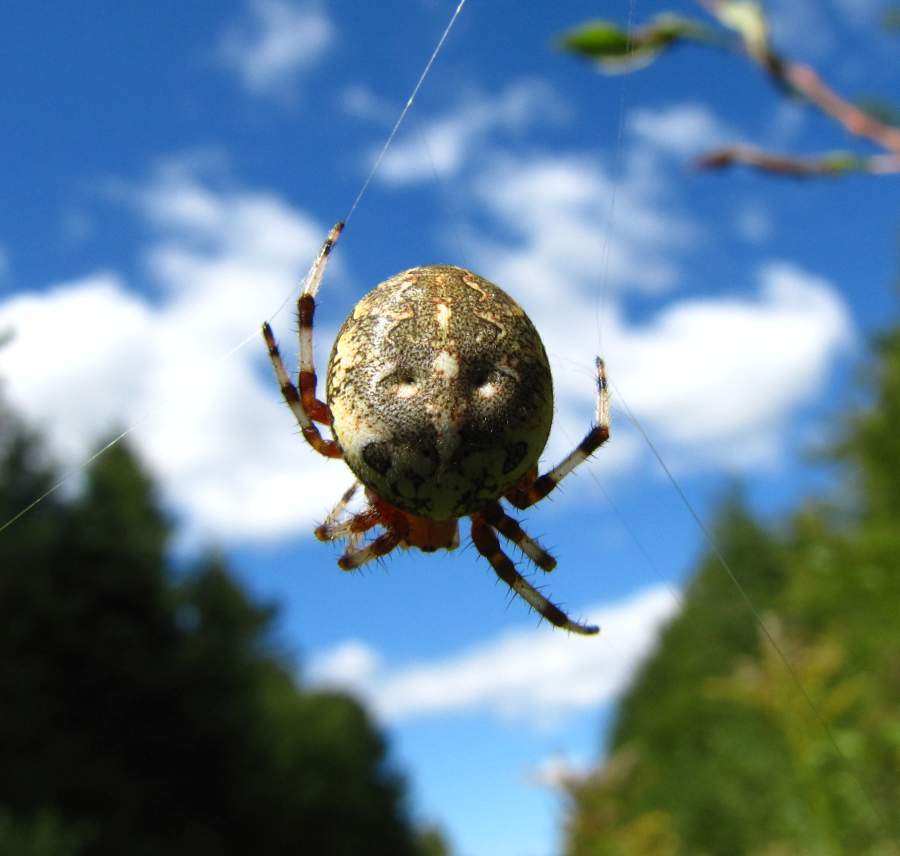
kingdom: Animalia
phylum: Arthropoda
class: Arachnida
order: Araneae
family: Araneidae
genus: Araneus
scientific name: Araneus marmoreus
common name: Marbled orbweaver
